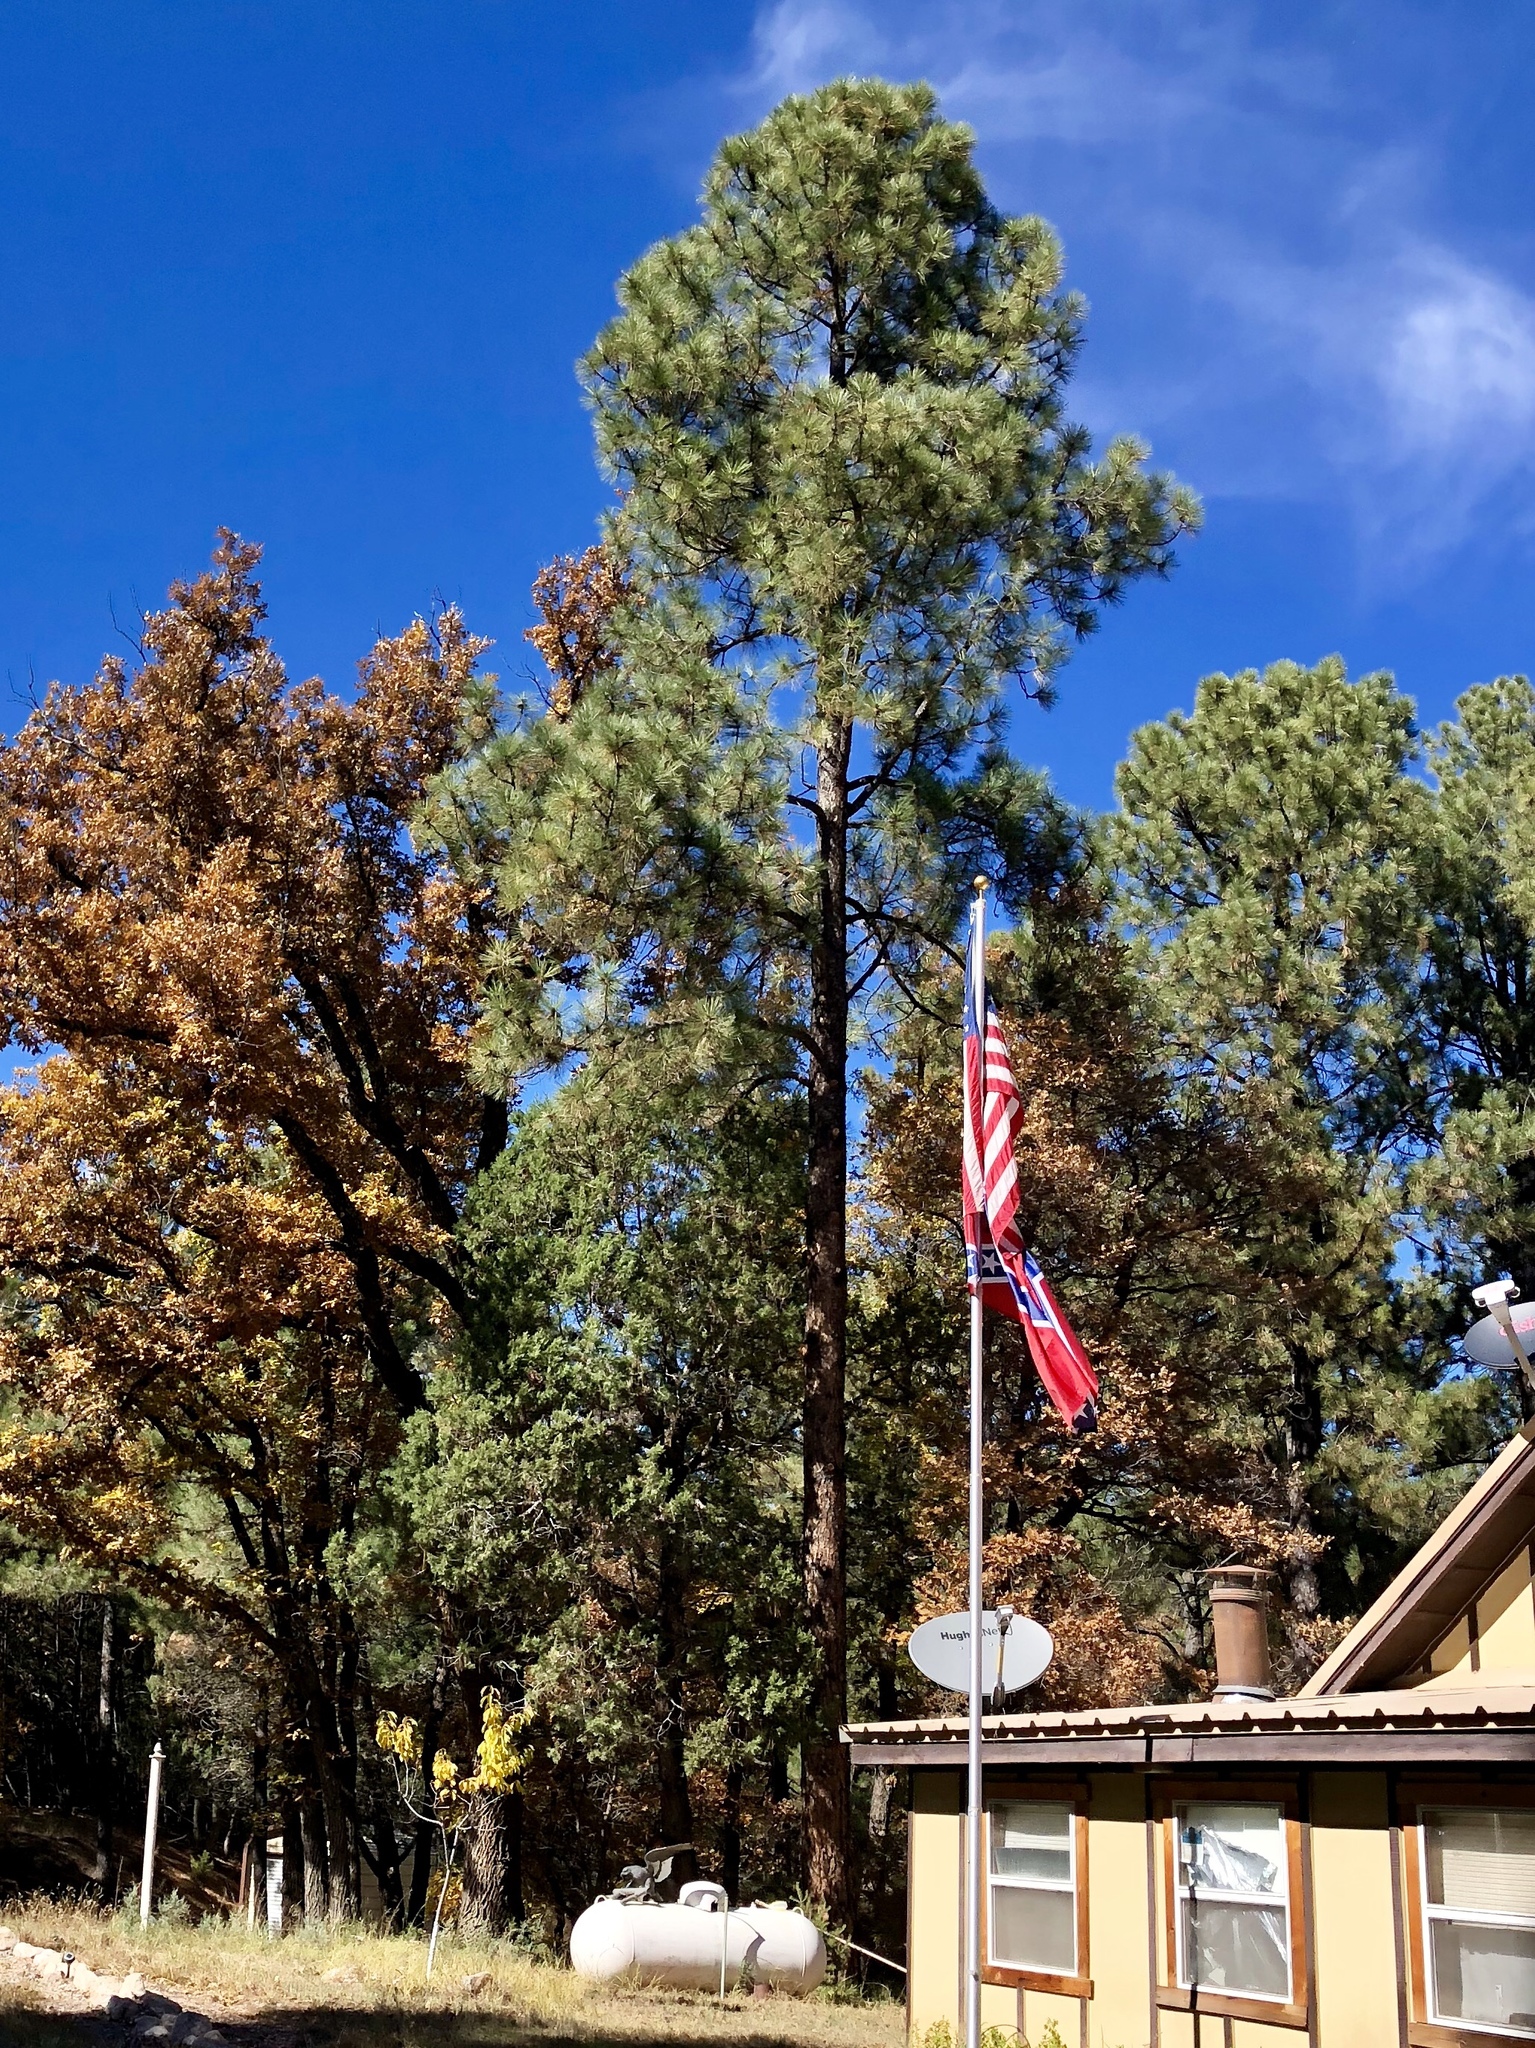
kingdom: Plantae
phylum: Tracheophyta
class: Pinopsida
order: Pinales
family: Pinaceae
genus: Pinus
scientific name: Pinus ponderosa
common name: Western yellow-pine
